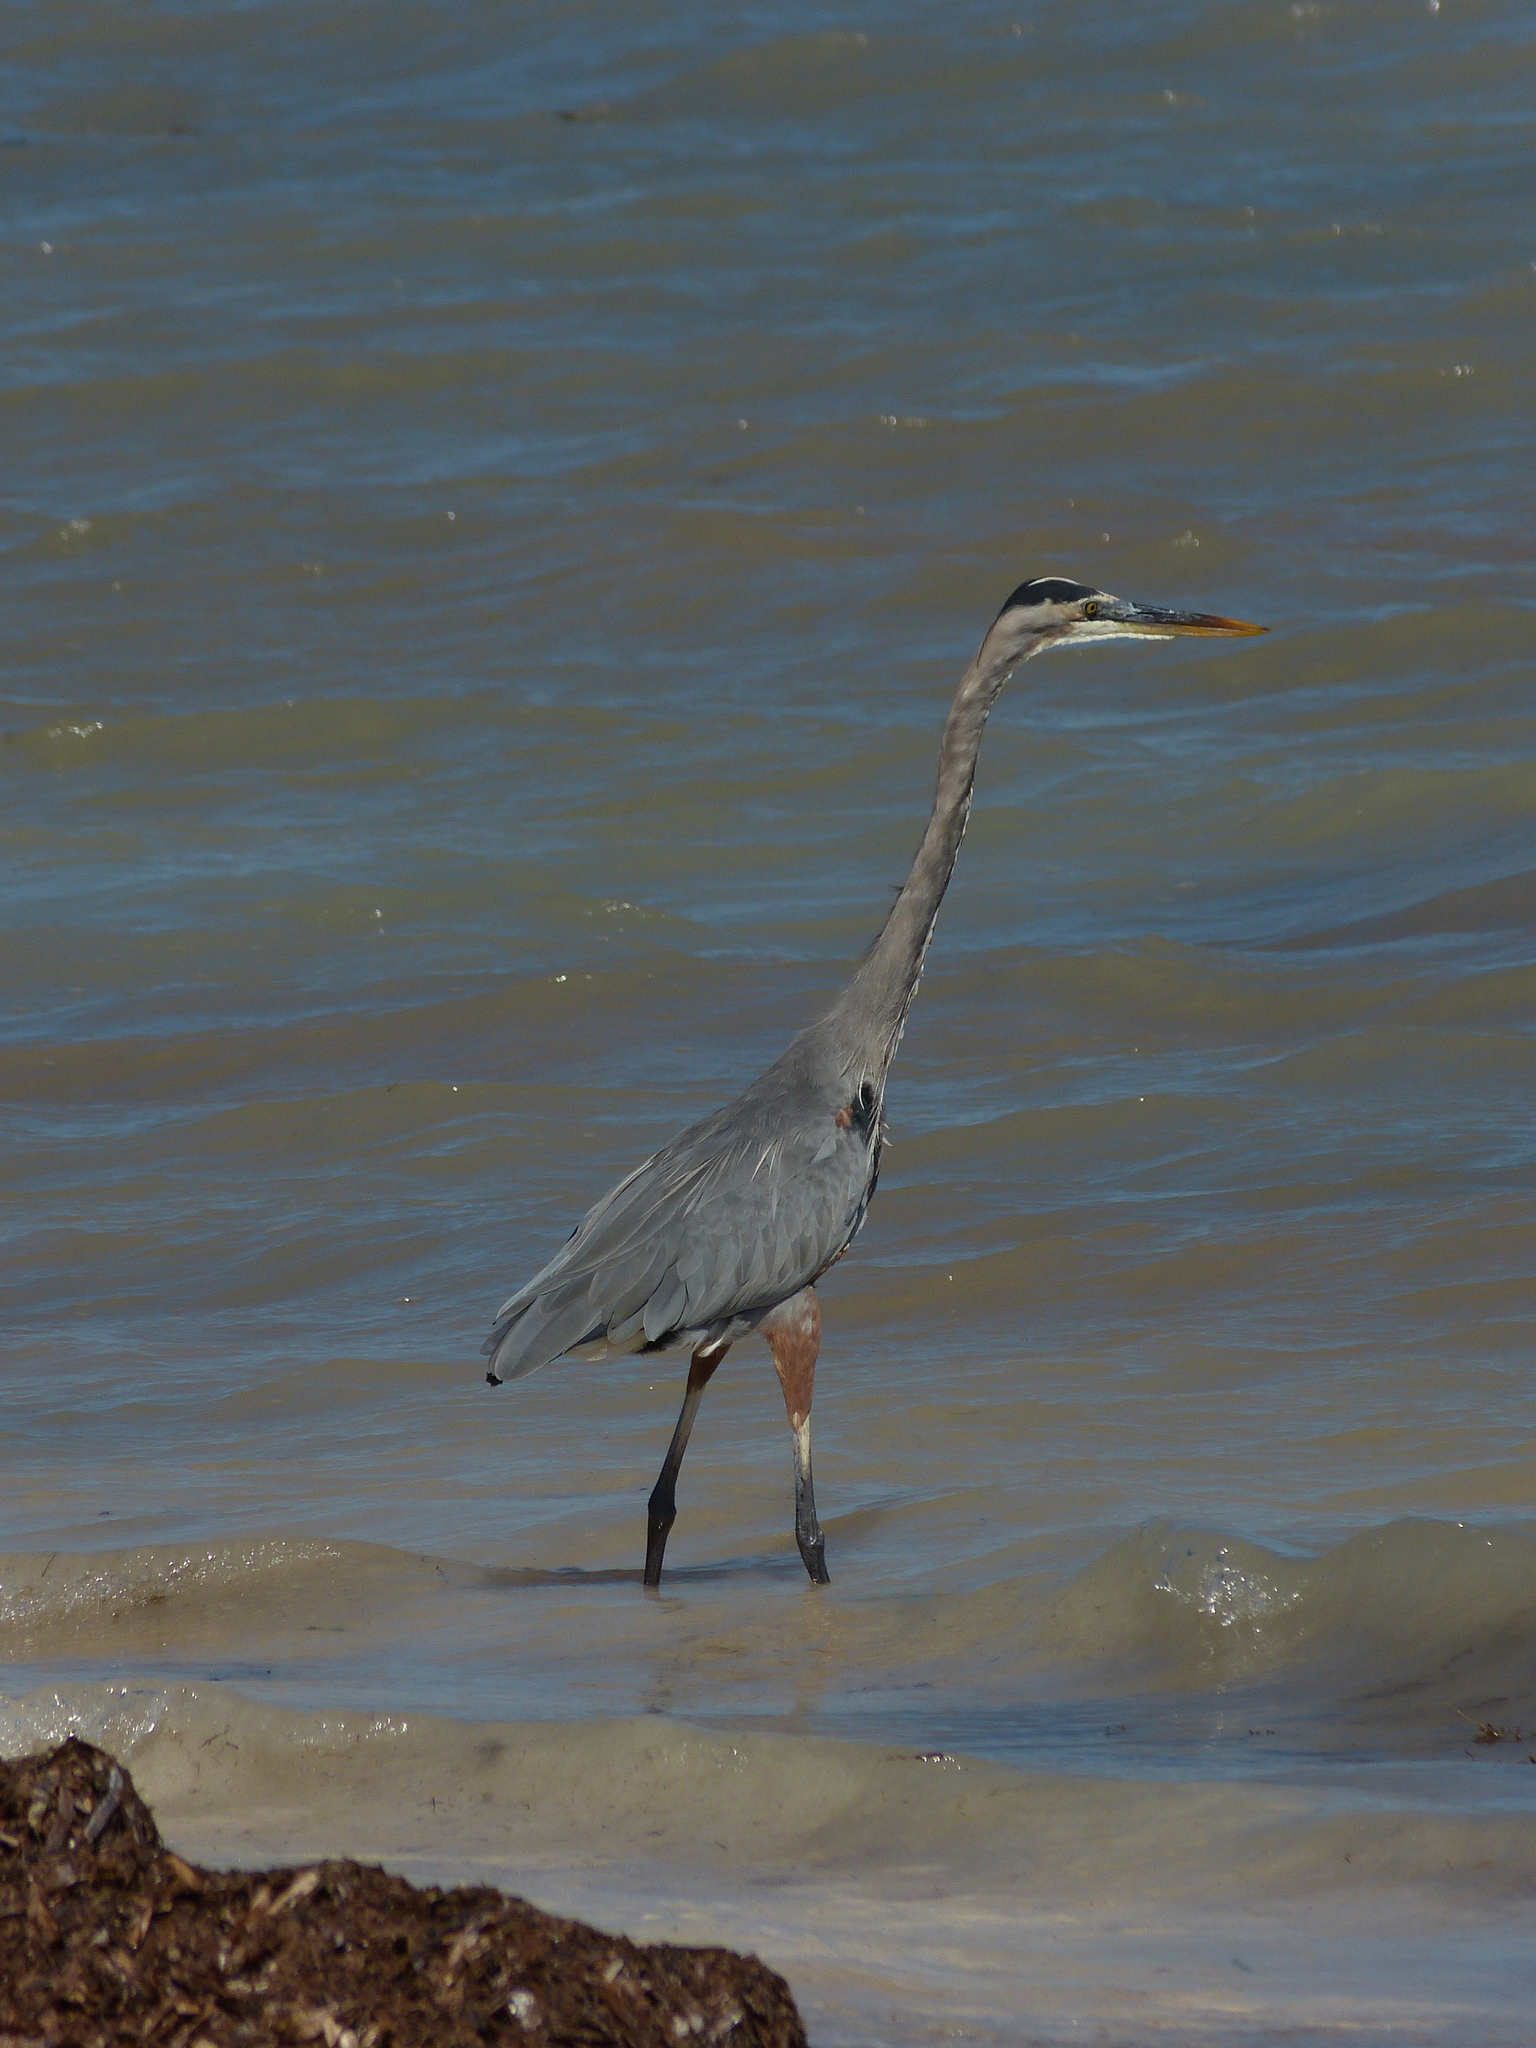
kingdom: Animalia
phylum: Chordata
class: Aves
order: Pelecaniformes
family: Ardeidae
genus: Ardea
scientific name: Ardea herodias
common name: Great blue heron
